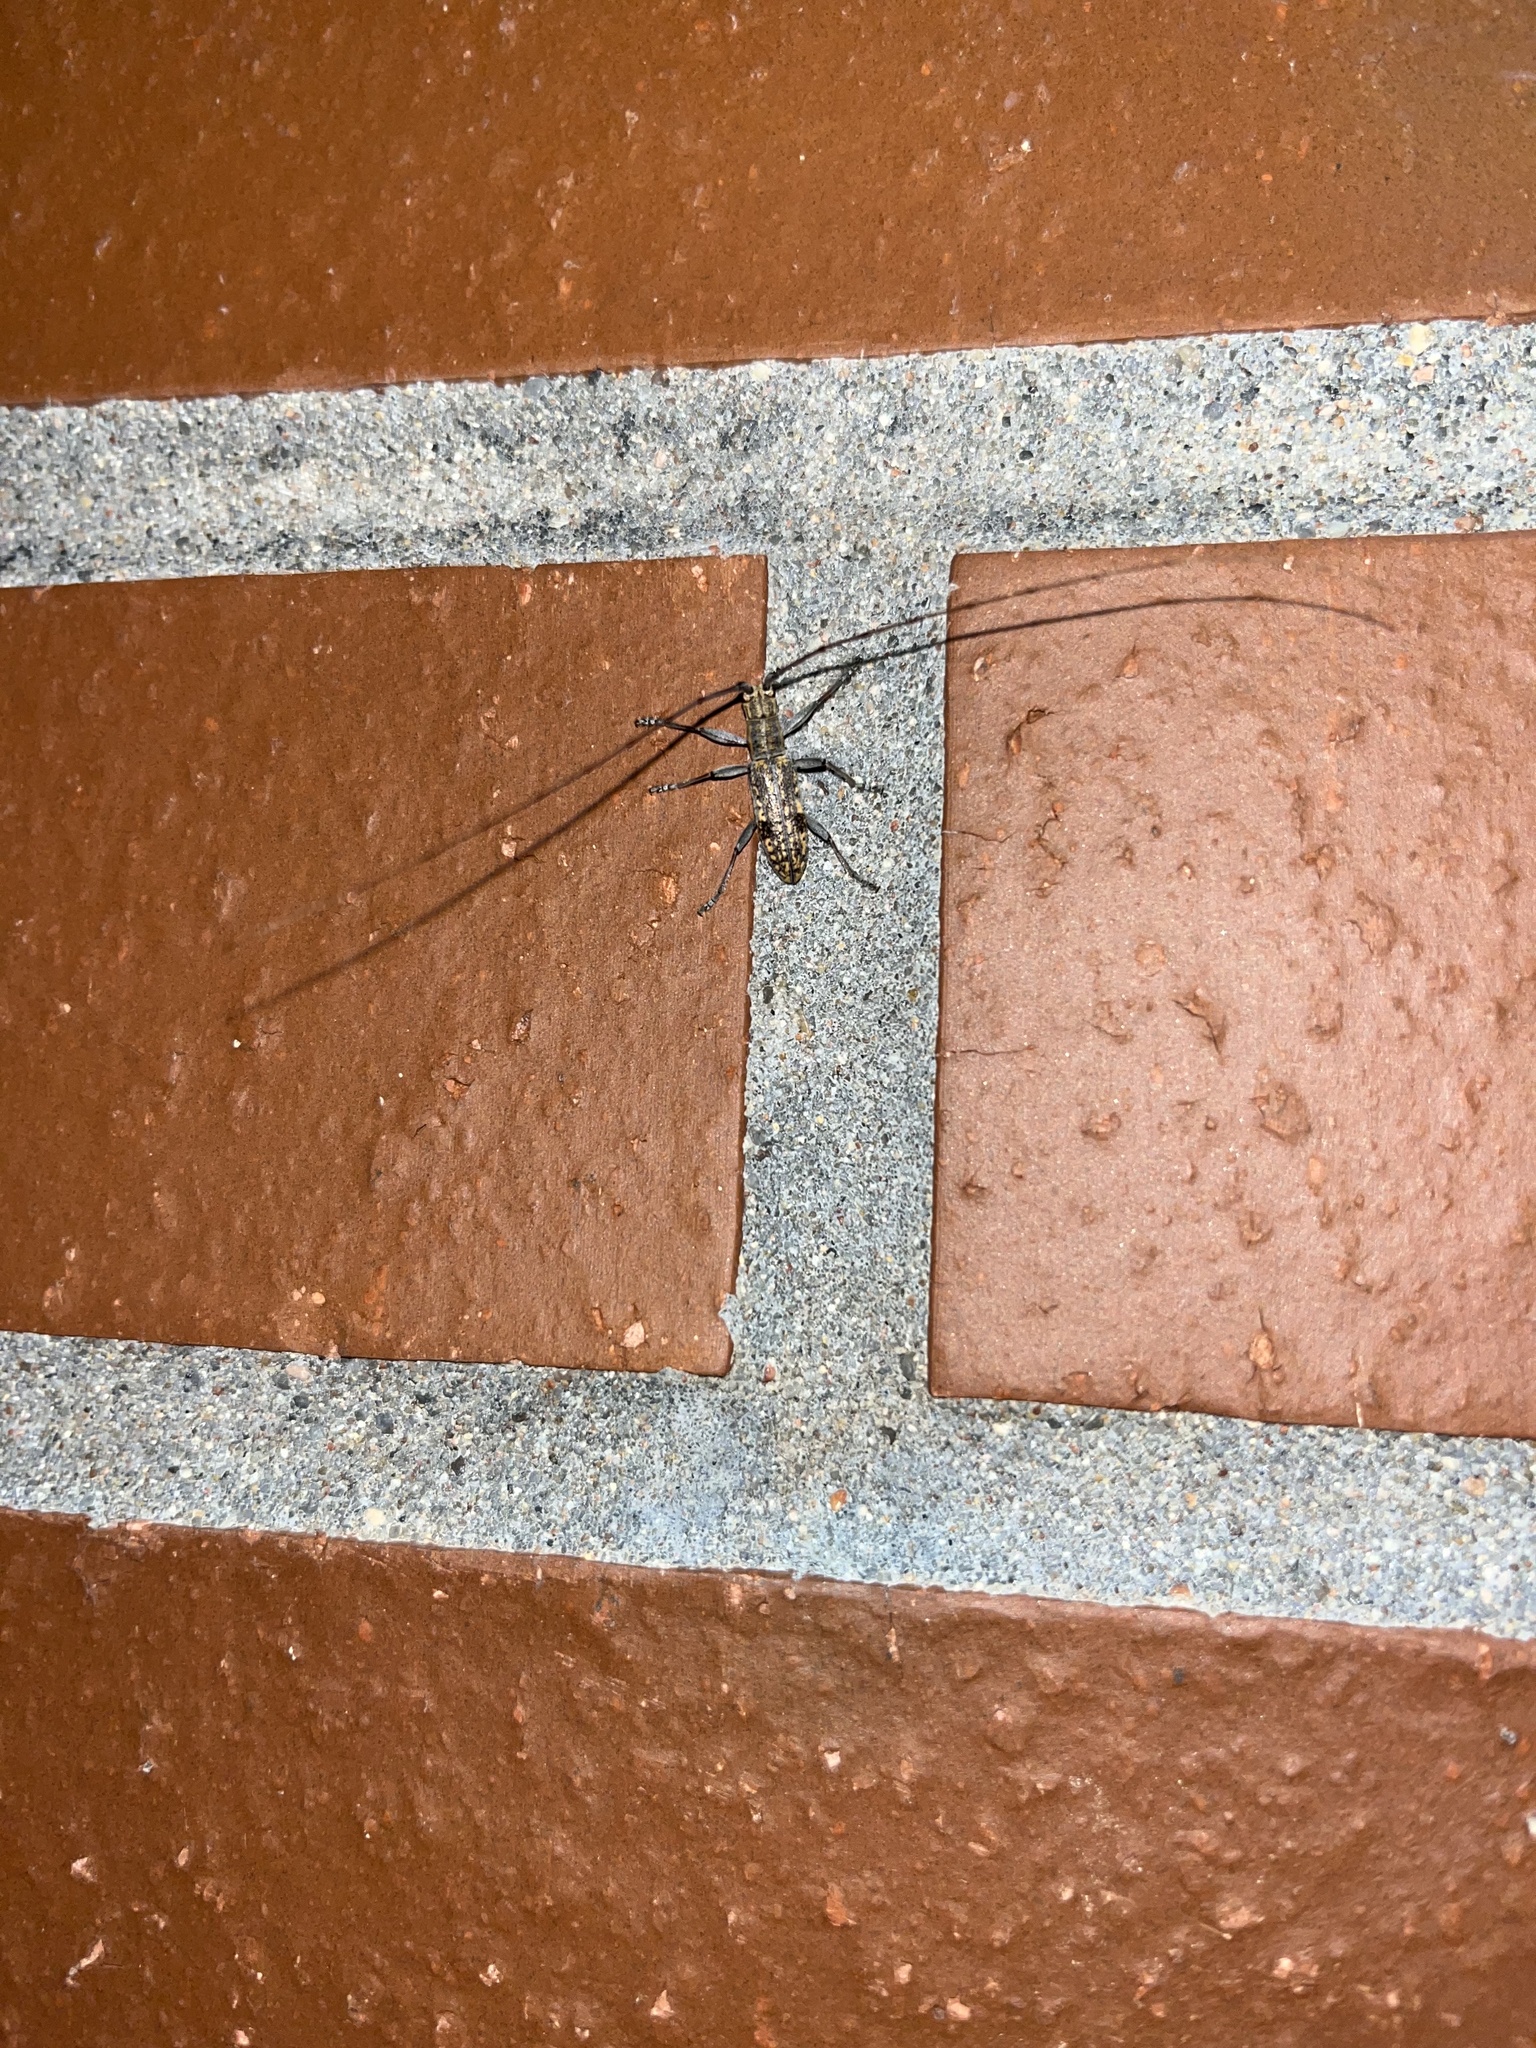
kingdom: Animalia
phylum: Arthropoda
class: Insecta
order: Coleoptera
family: Cerambycidae
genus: Dorcaschema
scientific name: Dorcaschema alternatum
